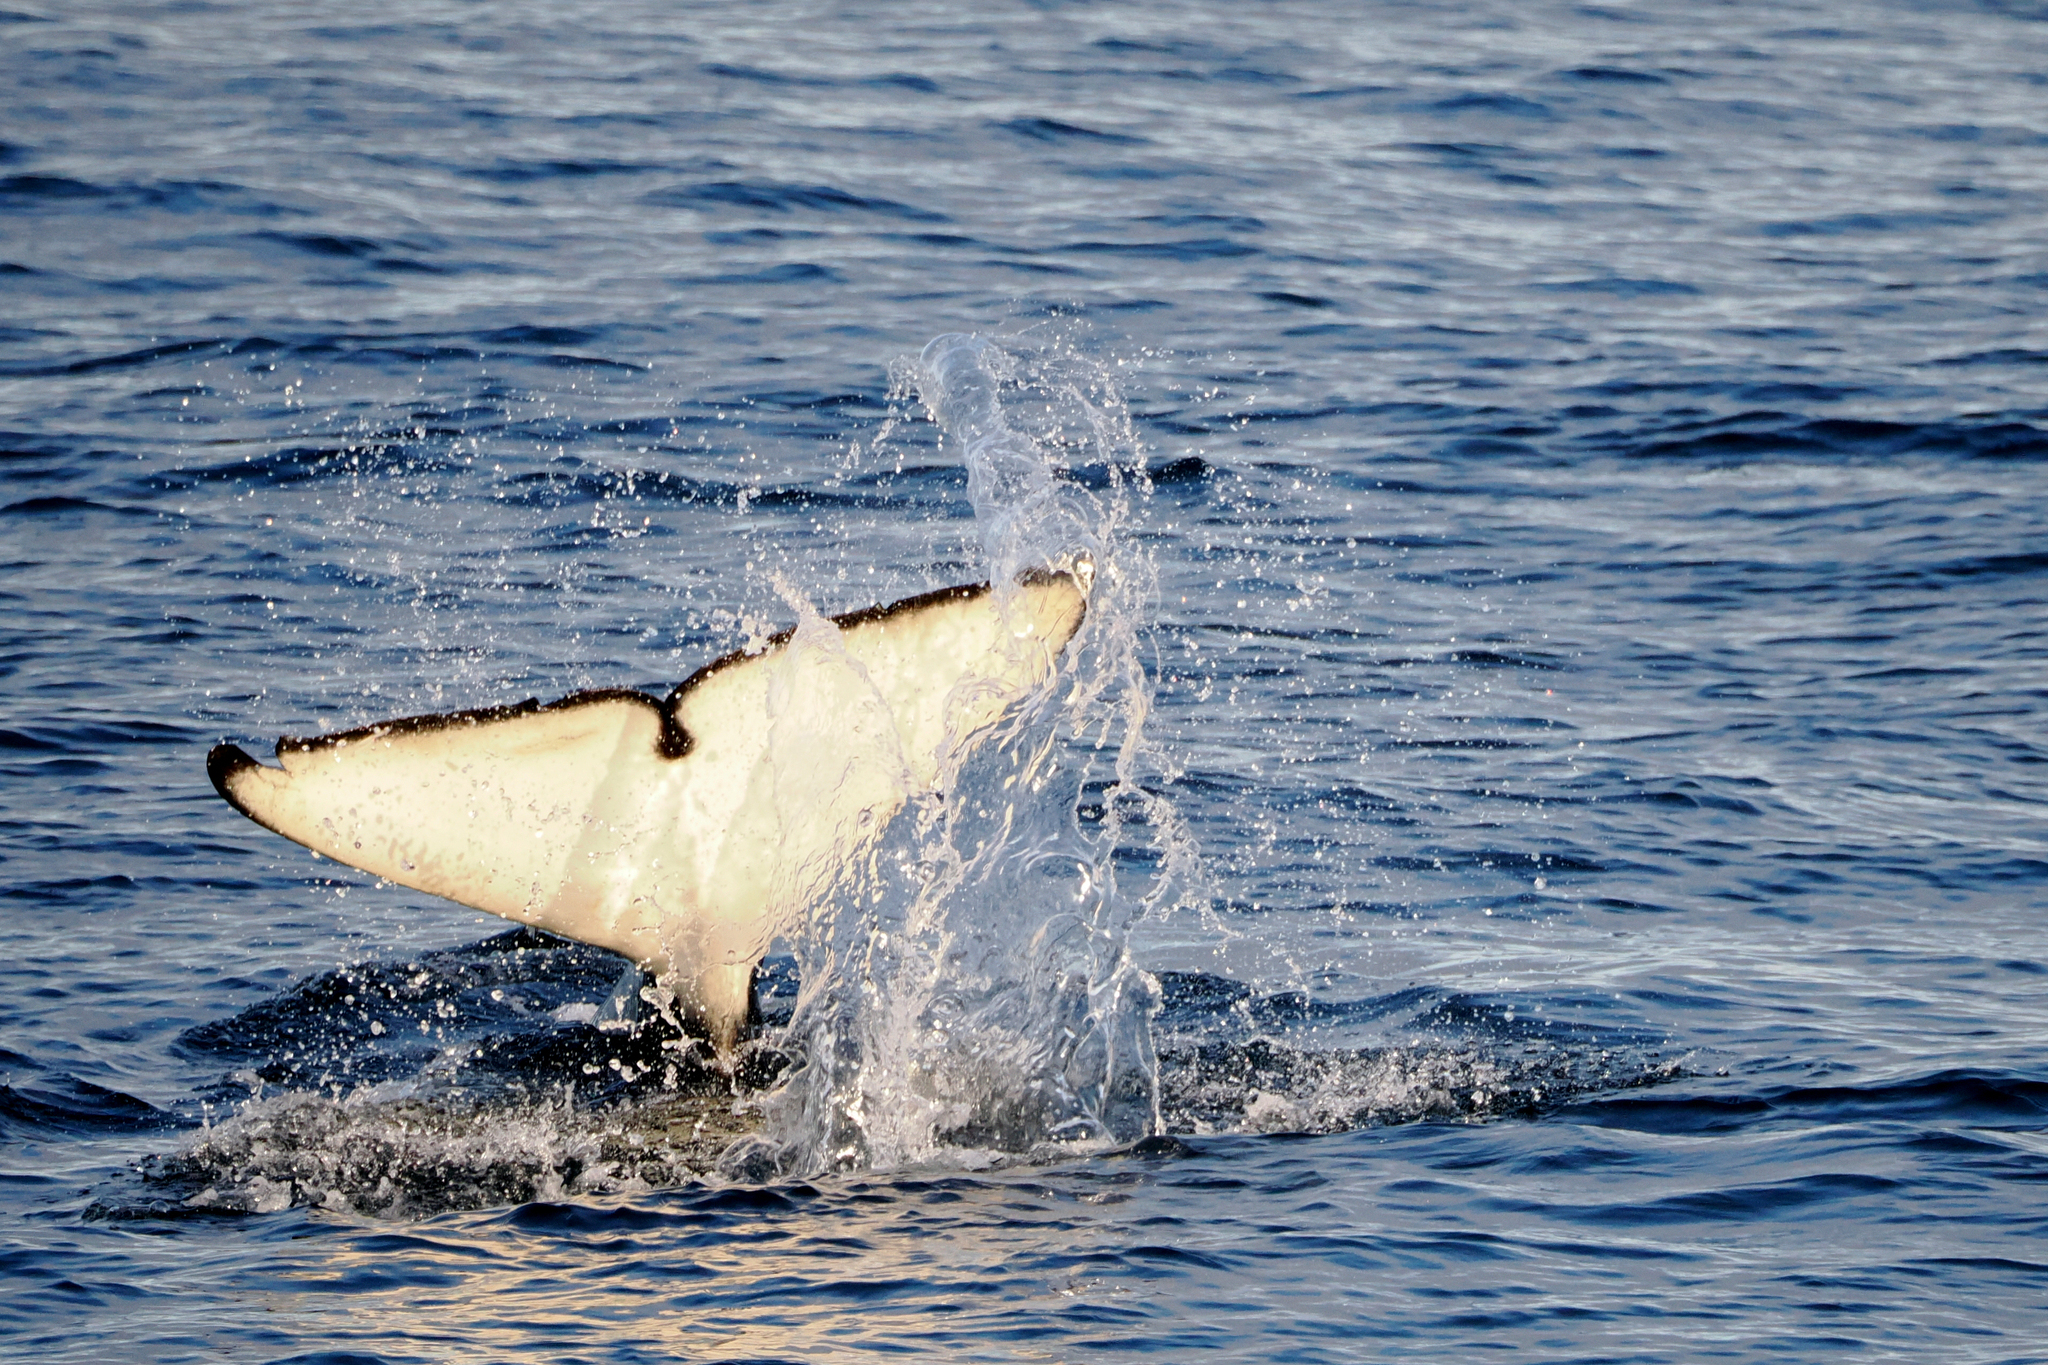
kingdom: Animalia
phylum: Chordata
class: Mammalia
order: Cetacea
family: Delphinidae
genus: Orcinus
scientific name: Orcinus orca
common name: Killer whale
